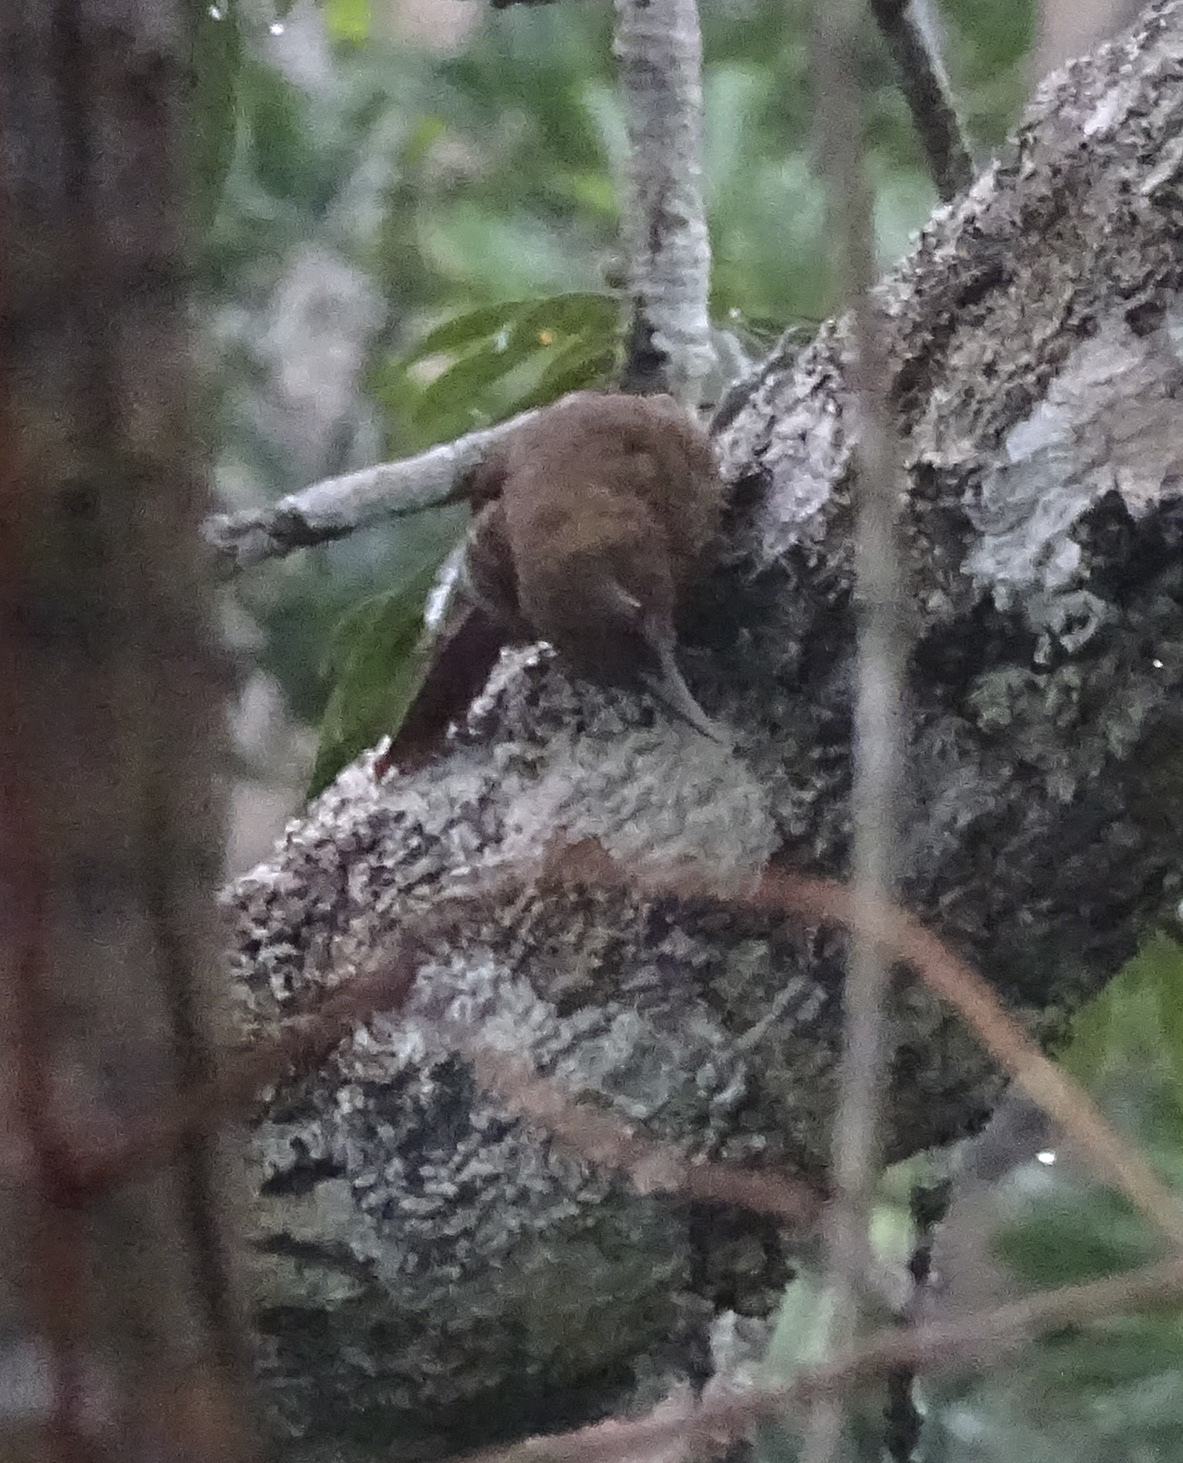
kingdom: Animalia
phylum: Chordata
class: Aves
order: Passeriformes
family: Furnariidae
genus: Dendrexetastes
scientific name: Dendrexetastes rufigula
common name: Cinnamon-throated woodcreeper
